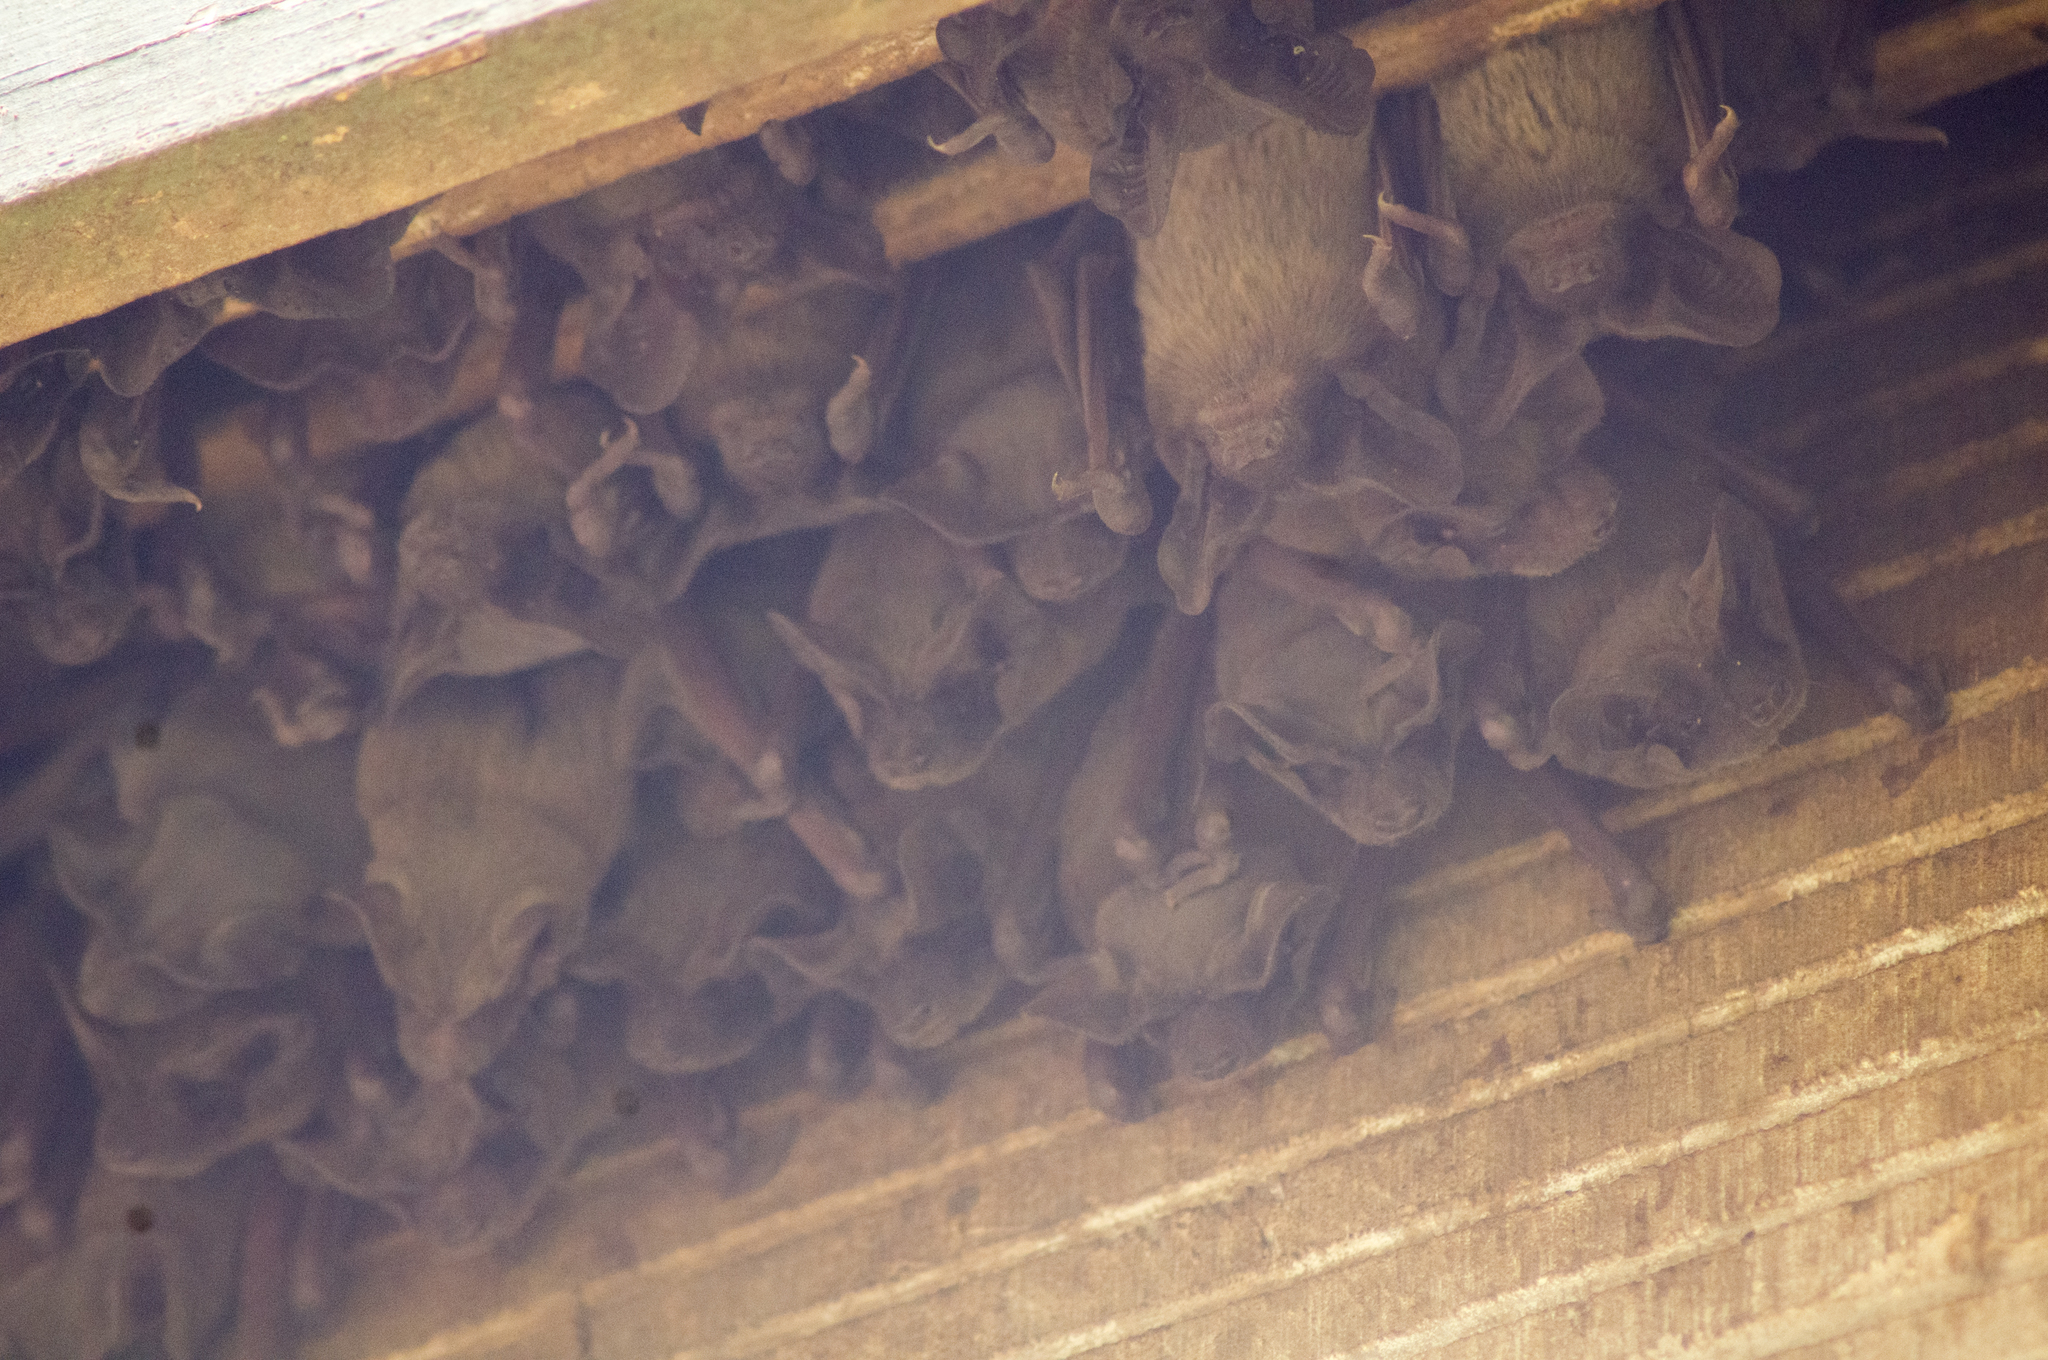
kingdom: Animalia
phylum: Chordata
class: Mammalia
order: Chiroptera
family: Molossidae
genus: Tadarida
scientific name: Tadarida brasiliensis
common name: Mexican free-tailed bat
